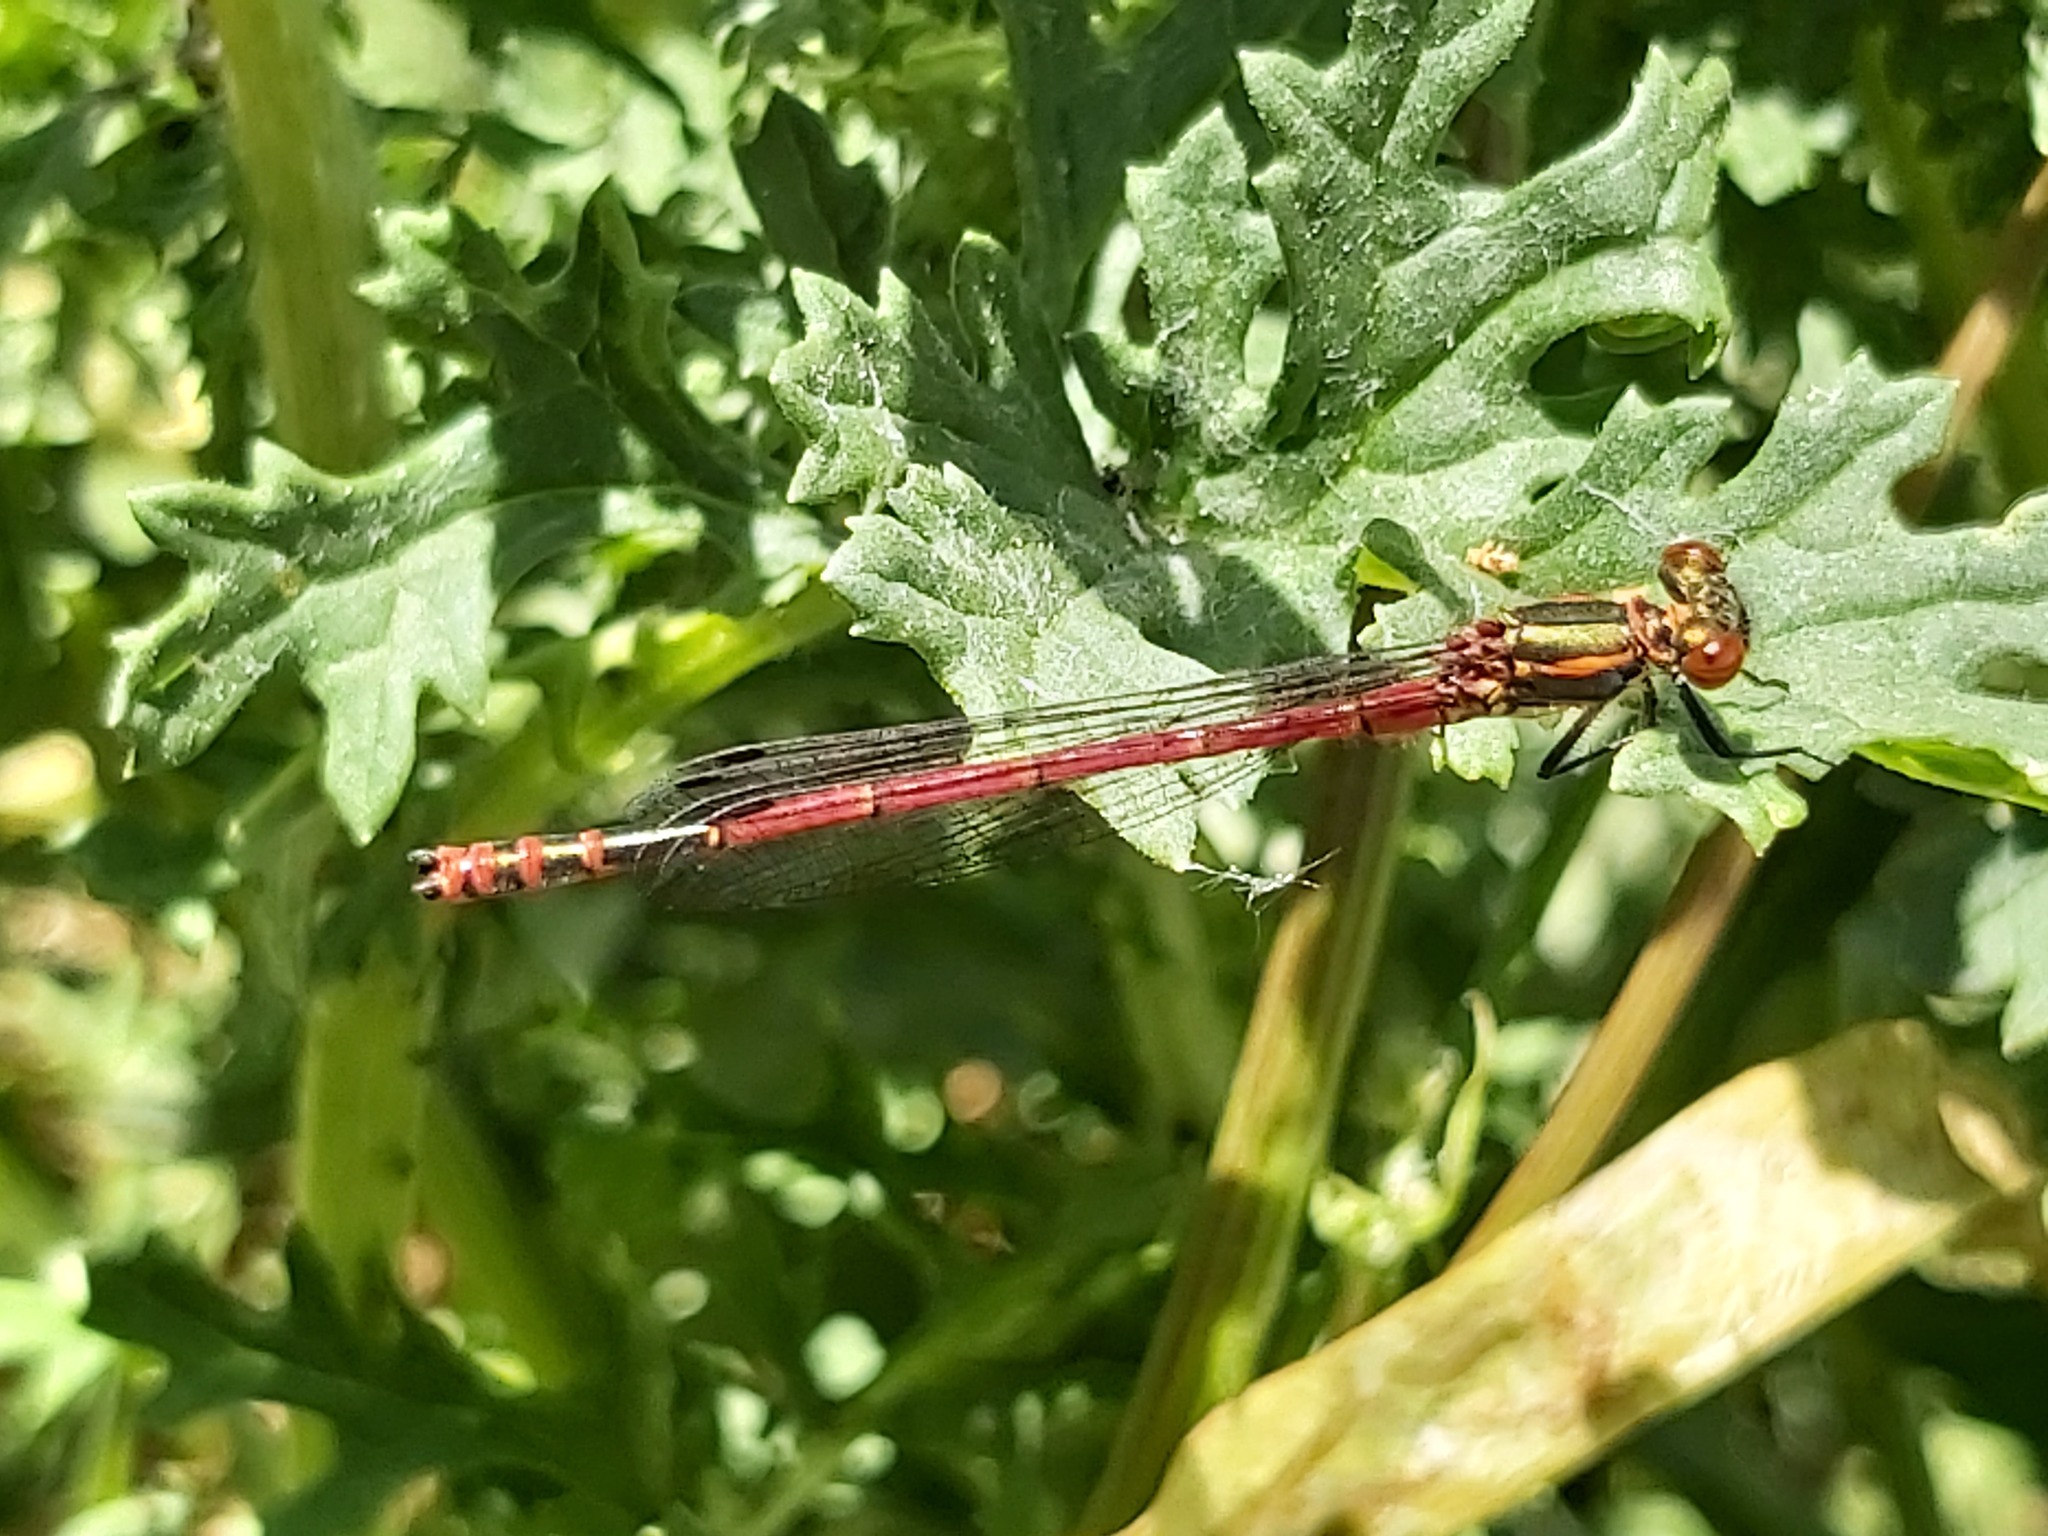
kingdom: Animalia
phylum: Arthropoda
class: Insecta
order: Odonata
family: Coenagrionidae
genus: Pyrrhosoma
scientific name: Pyrrhosoma nymphula
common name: Large red damsel
